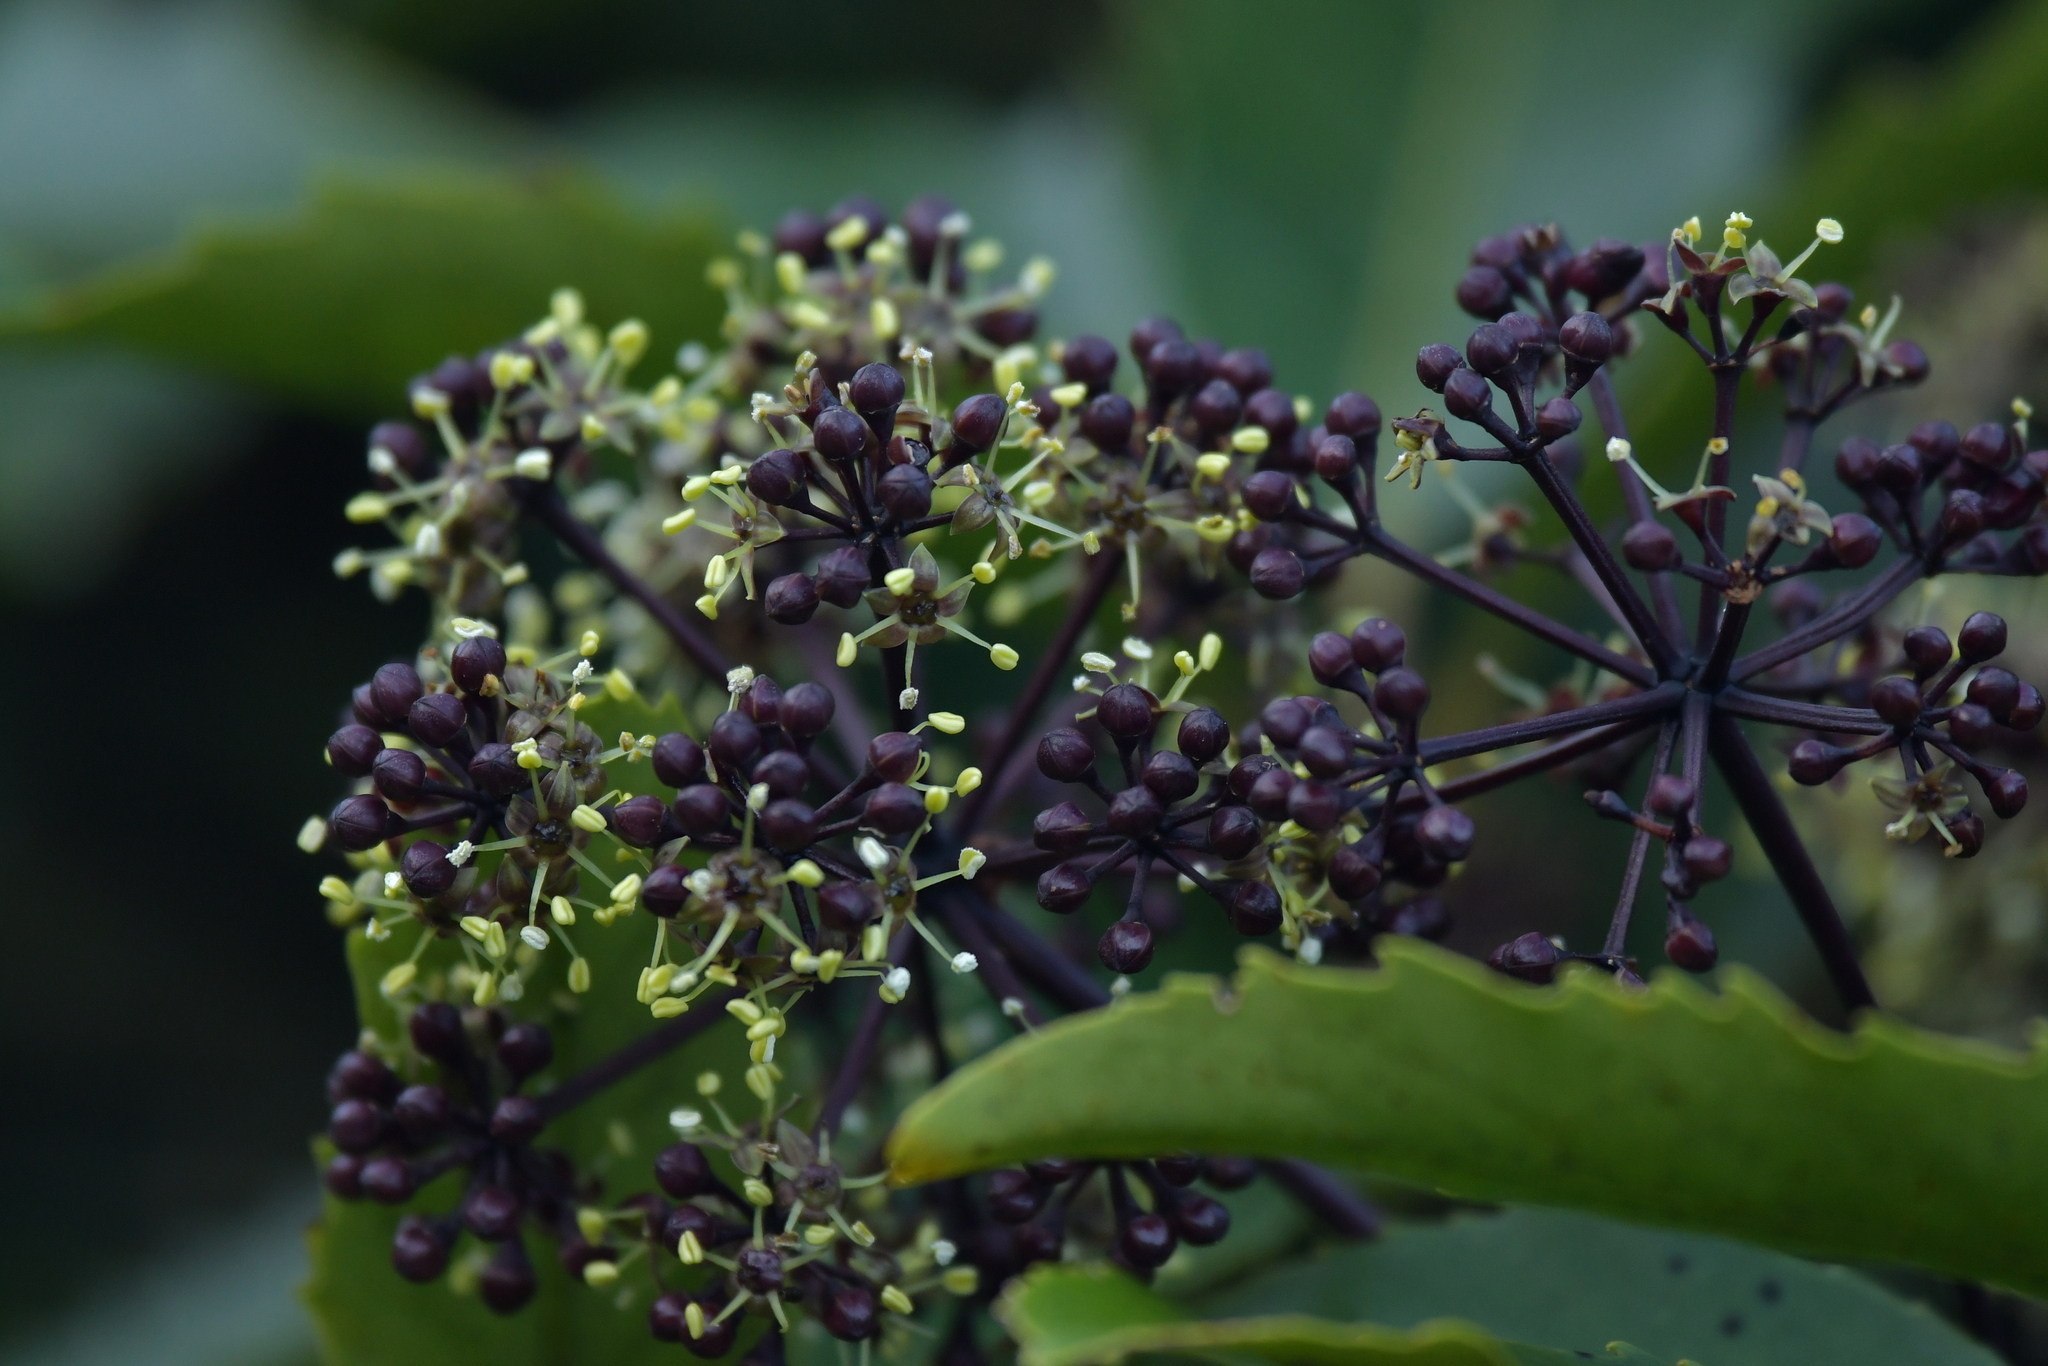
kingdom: Plantae
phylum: Tracheophyta
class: Magnoliopsida
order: Apiales
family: Araliaceae
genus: Neopanax
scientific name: Neopanax arboreus
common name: Five-fingers
